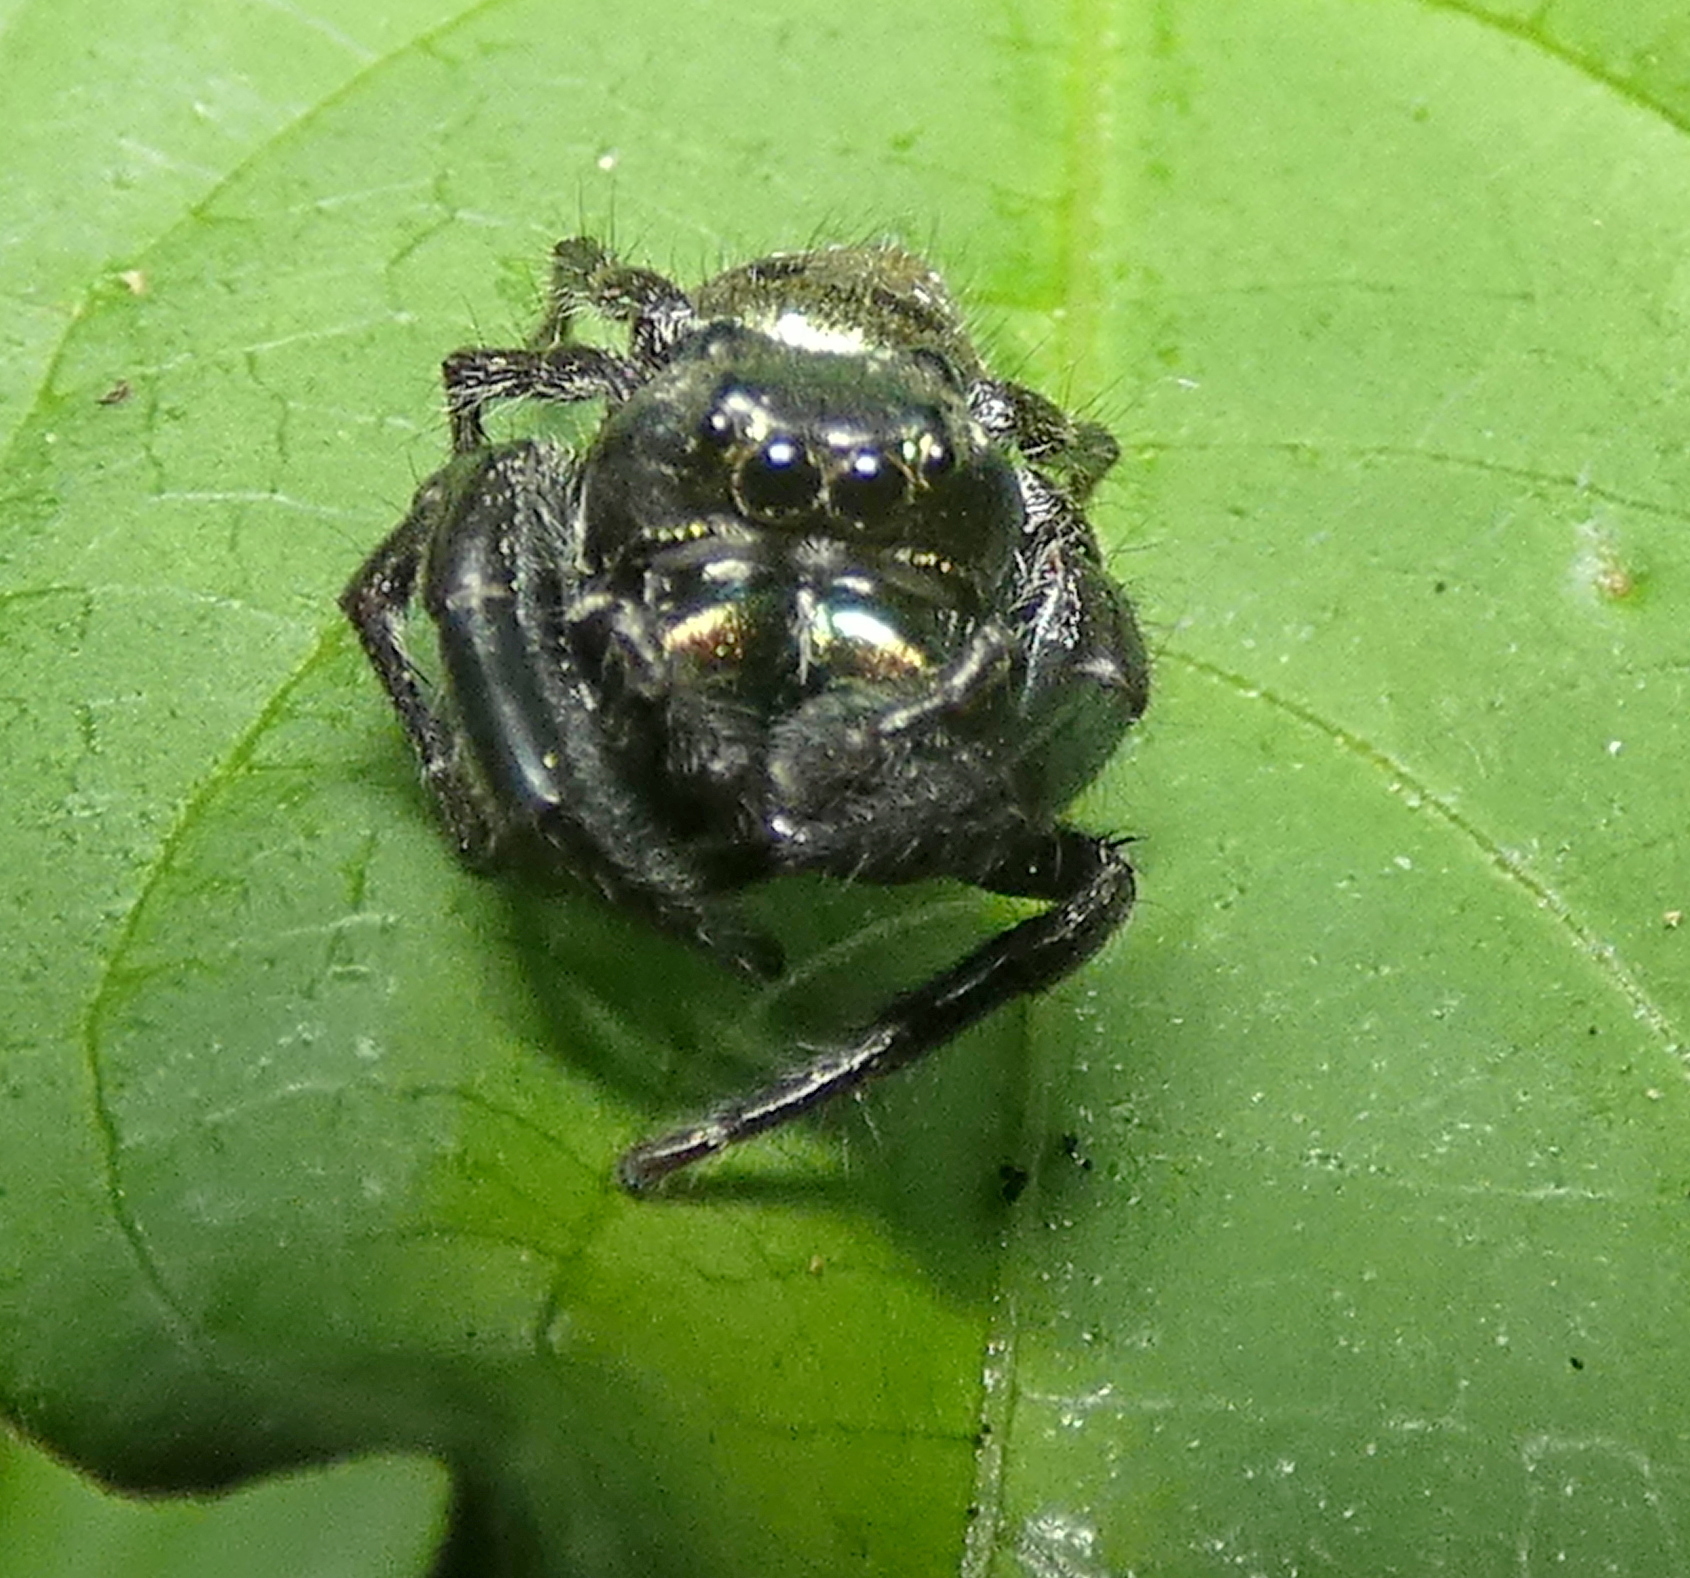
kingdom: Animalia
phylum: Arthropoda
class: Arachnida
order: Araneae
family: Salticidae
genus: Parnaenus
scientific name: Parnaenus cyanidens
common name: Jumping spiders
